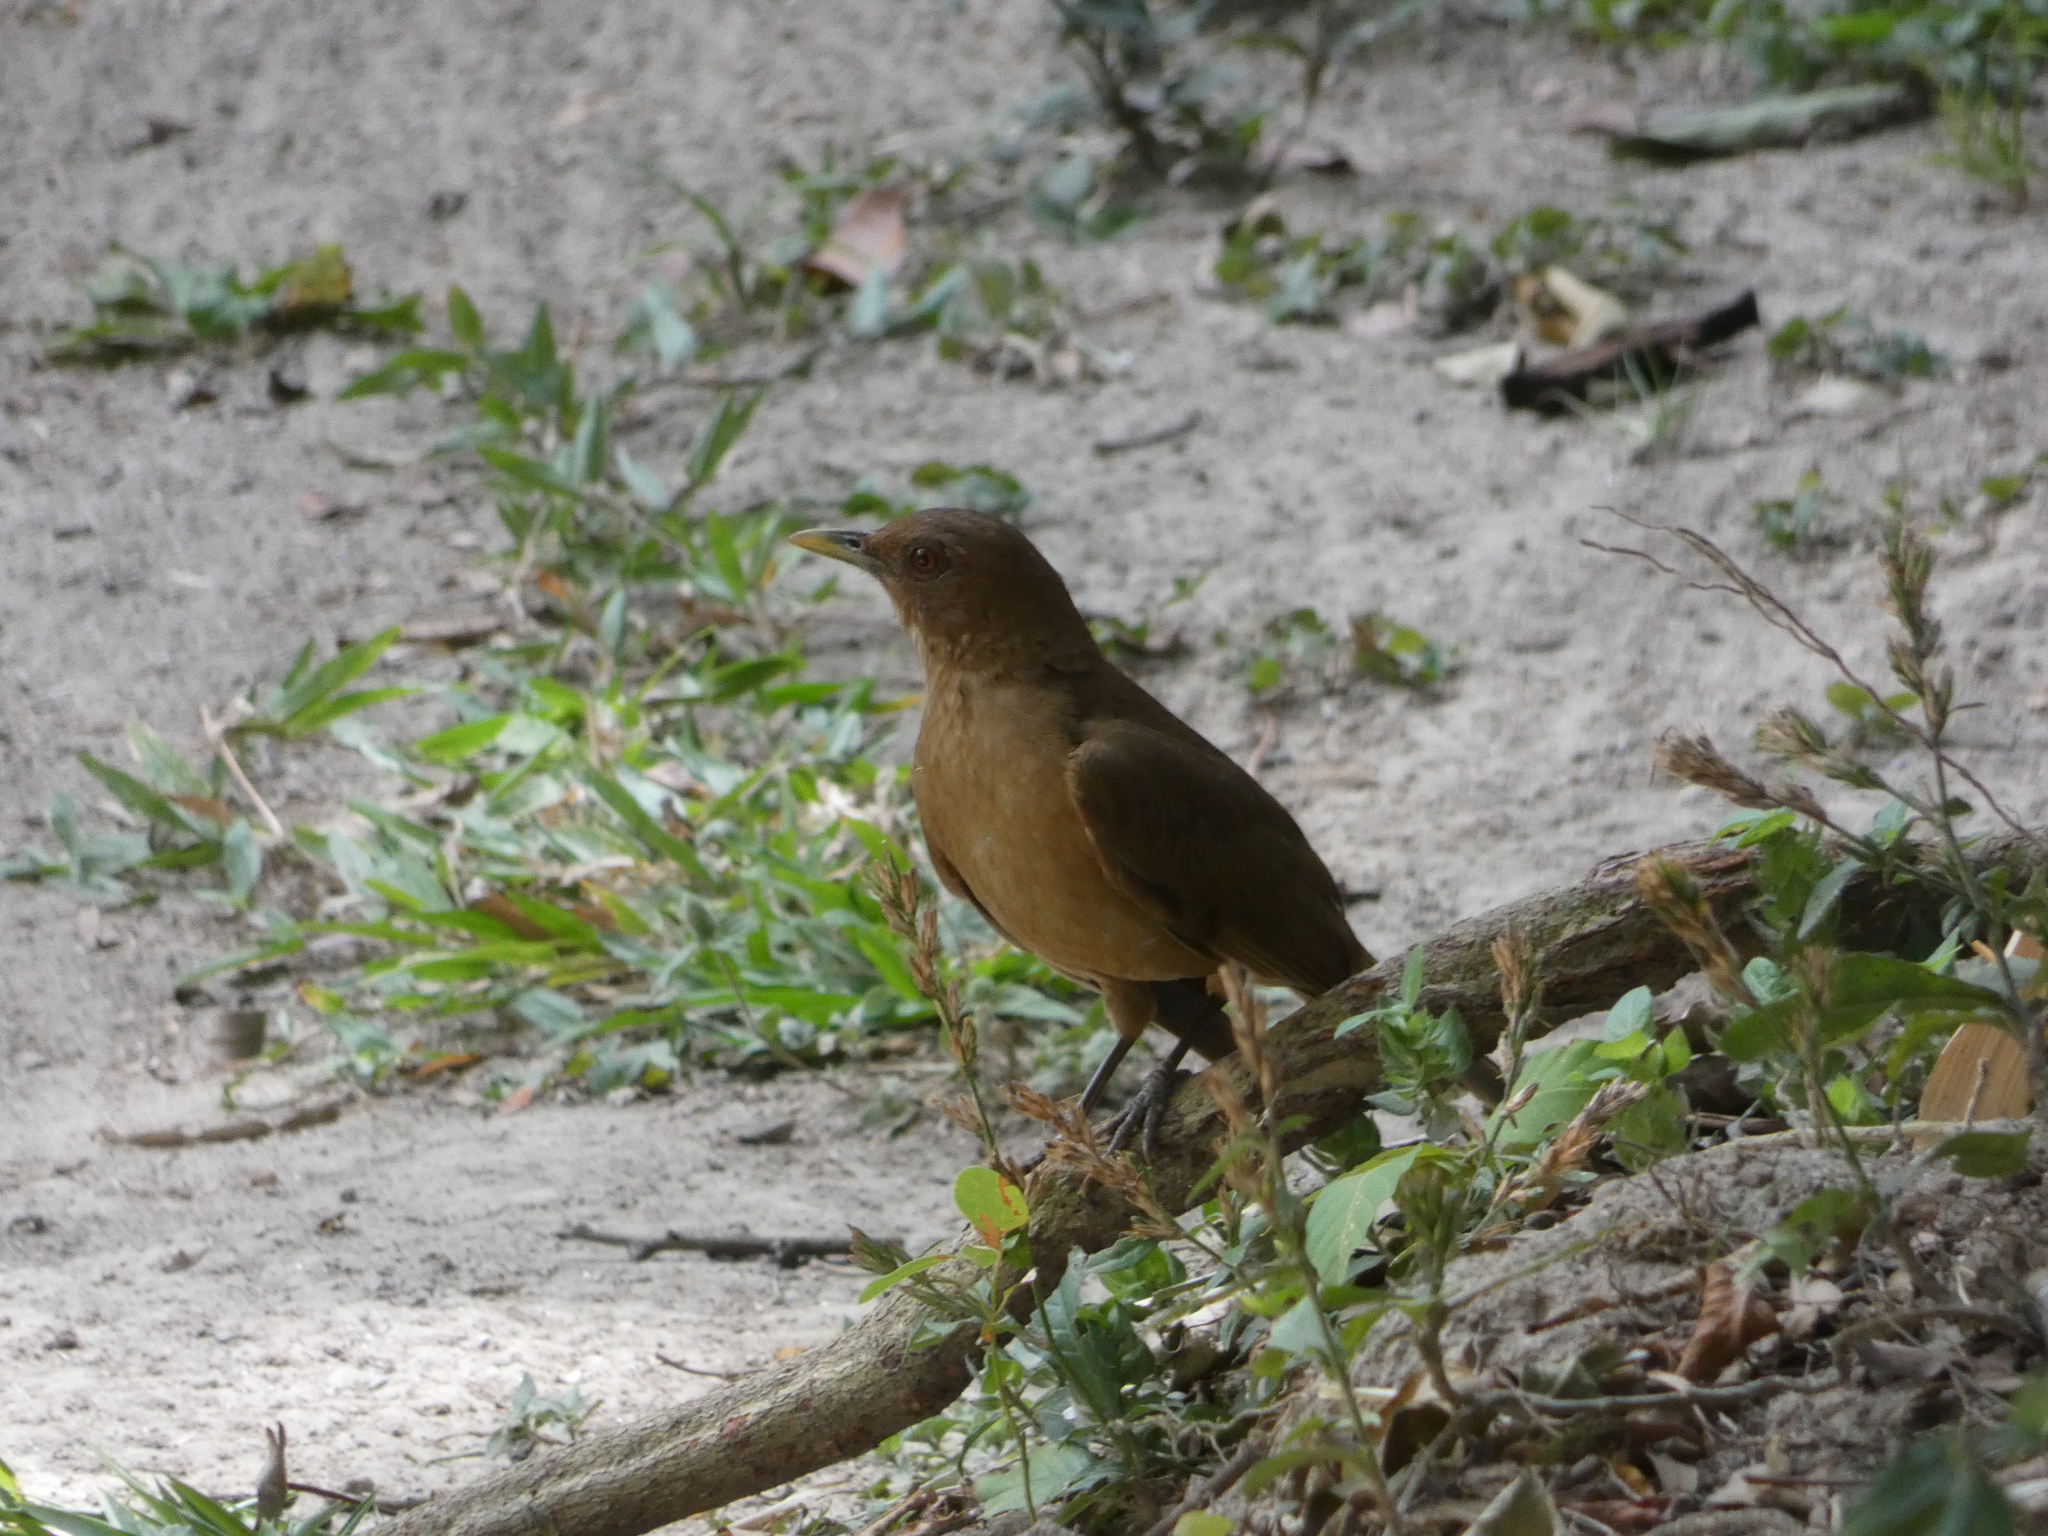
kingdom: Animalia
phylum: Chordata
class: Aves
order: Passeriformes
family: Turdidae
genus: Turdus
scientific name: Turdus grayi
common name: Clay-colored thrush
